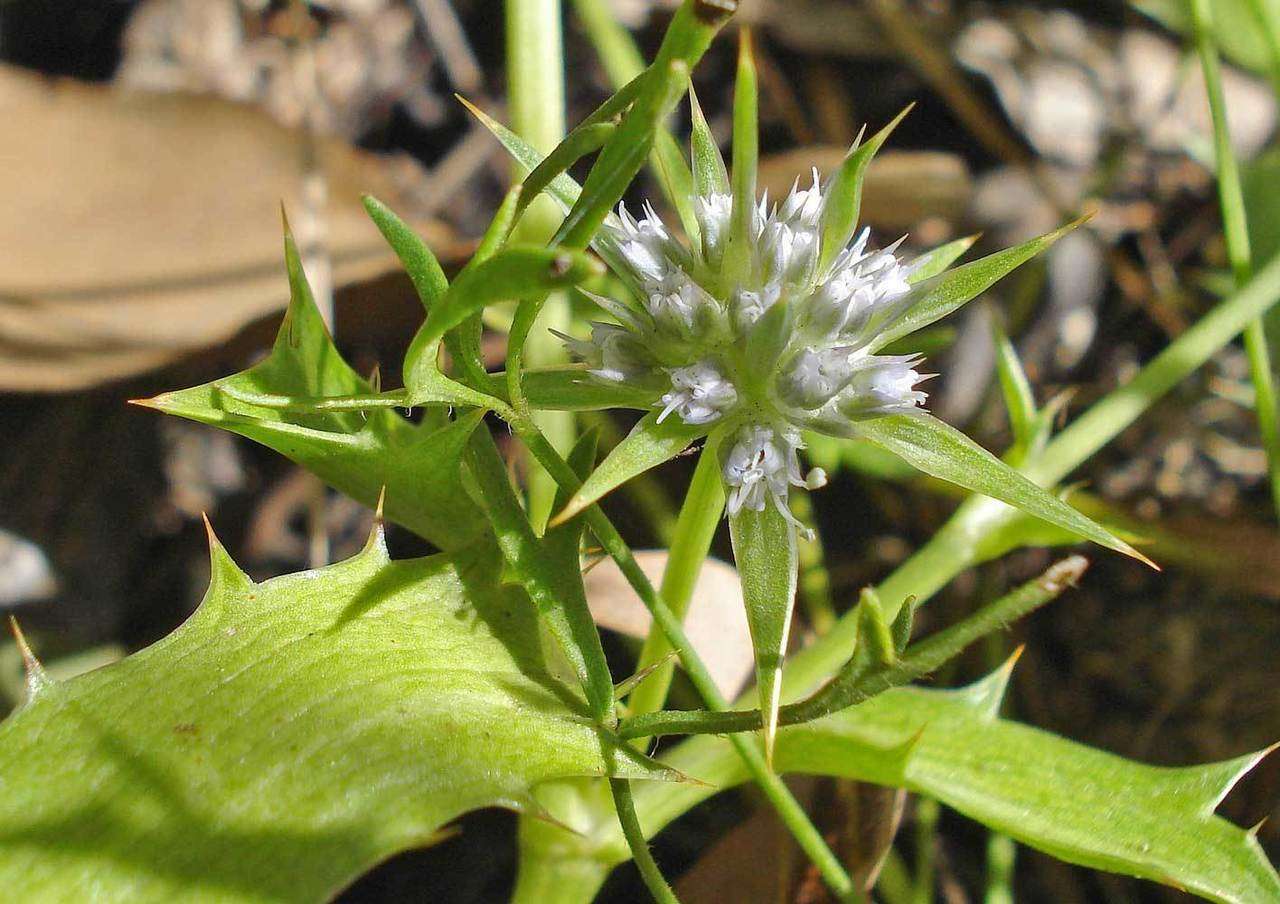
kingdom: Plantae
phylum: Tracheophyta
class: Magnoliopsida
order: Apiales
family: Apiaceae
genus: Eryngium
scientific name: Eryngium vesiculosum
